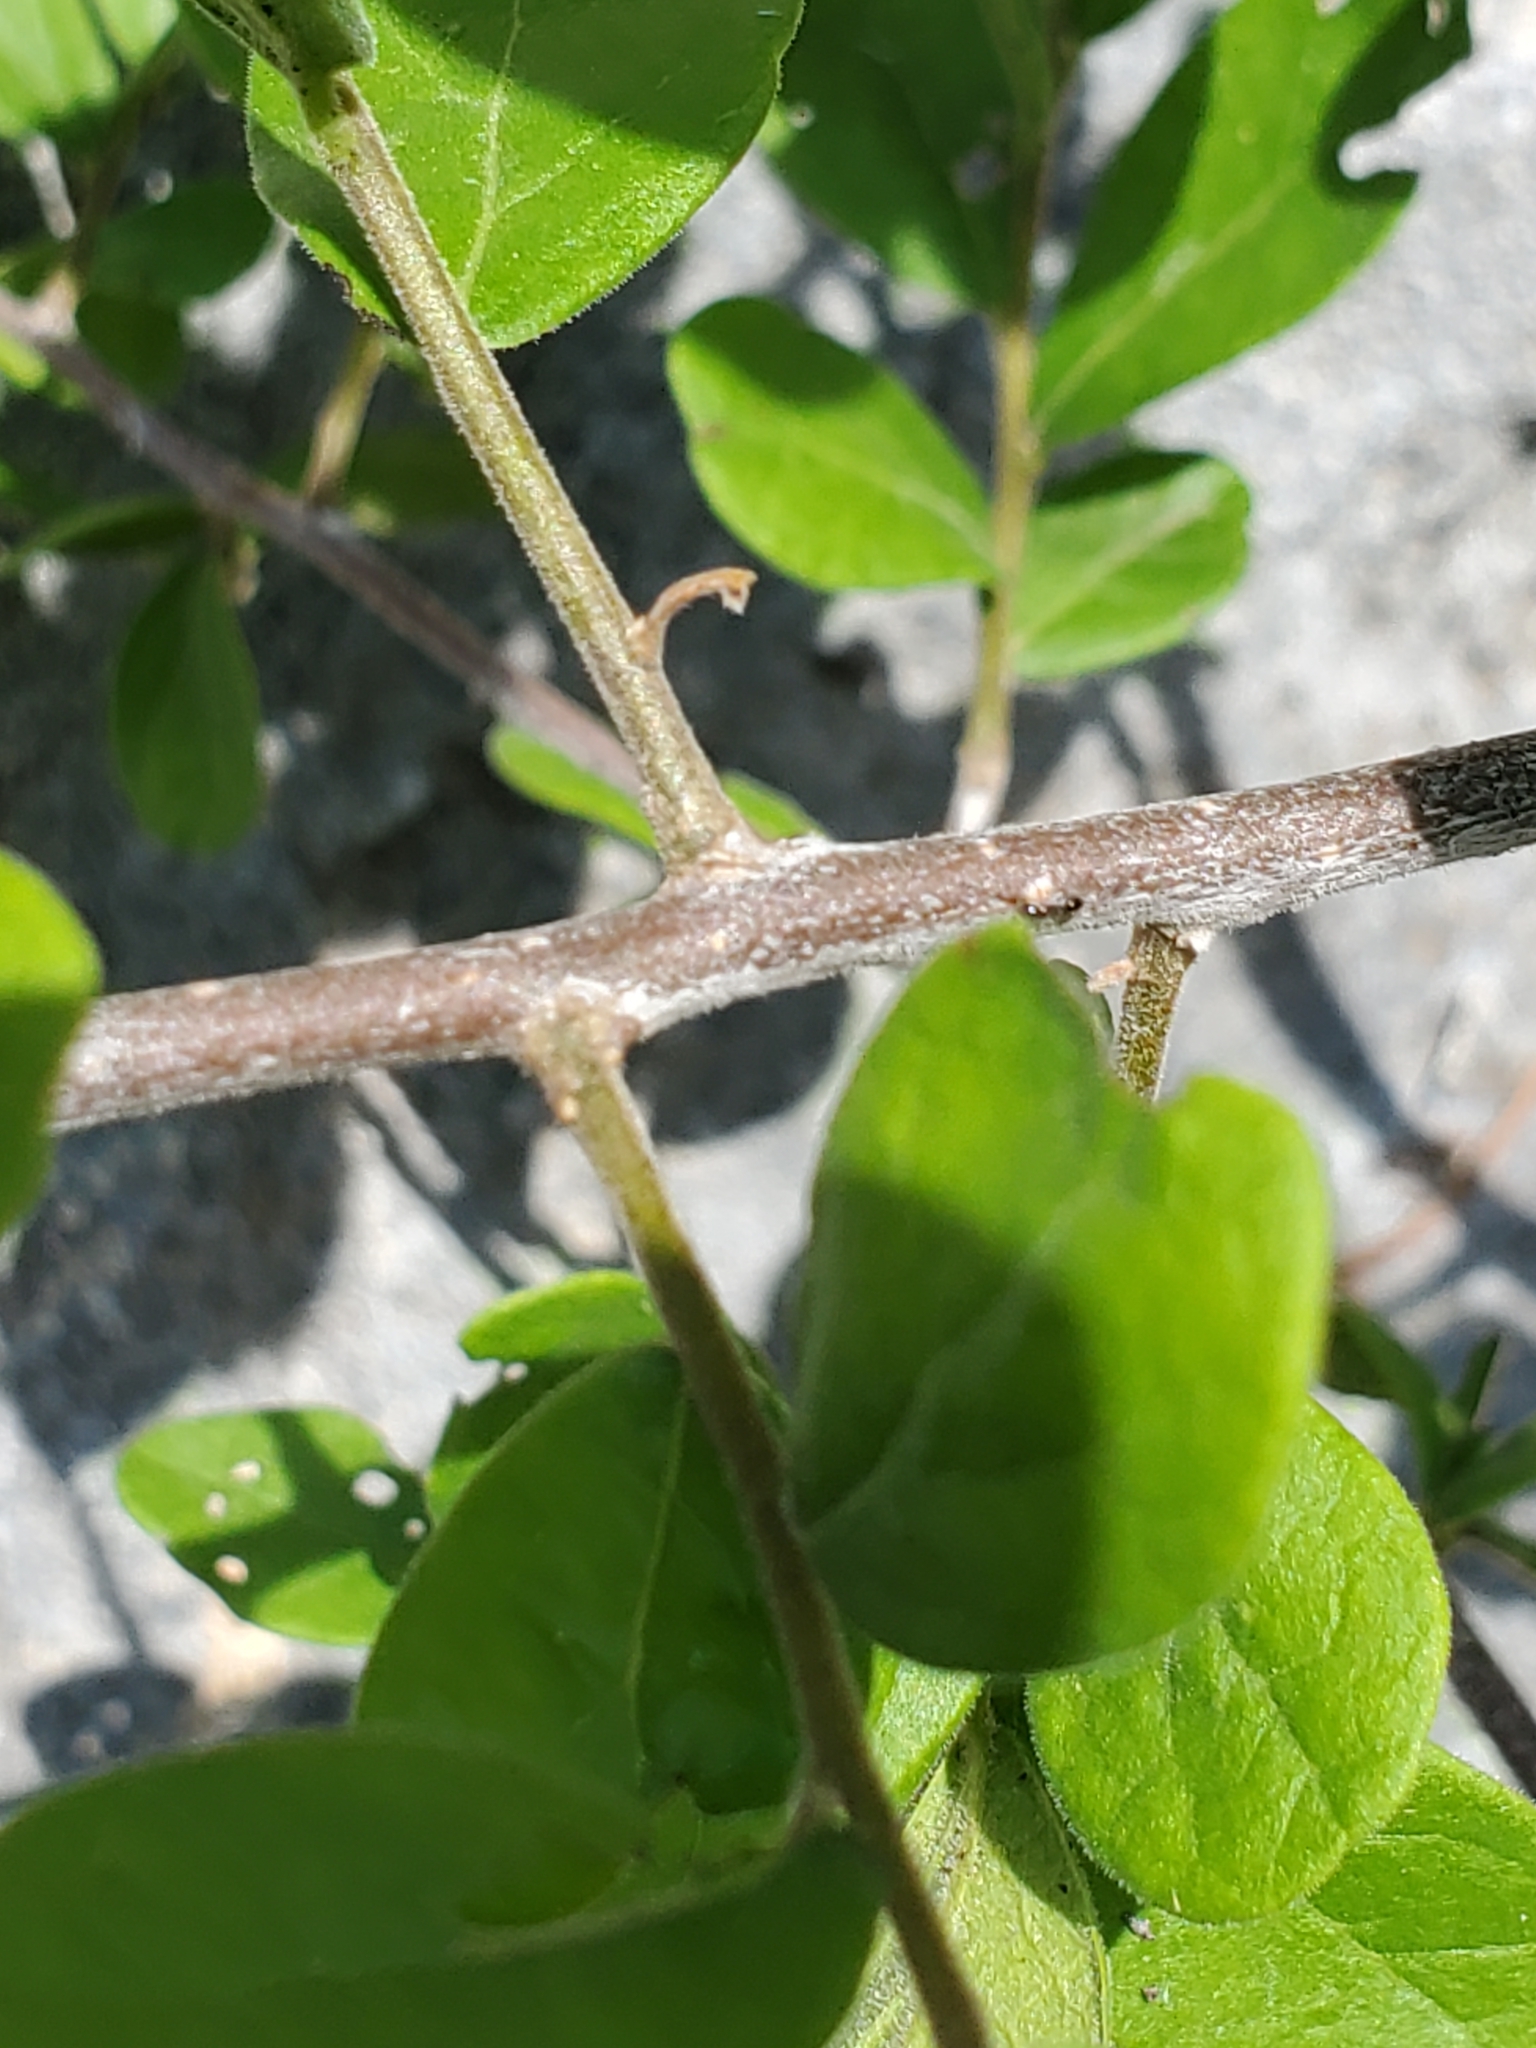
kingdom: Plantae
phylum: Tracheophyta
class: Magnoliopsida
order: Ericales
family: Ebenaceae
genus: Diospyros
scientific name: Diospyros texana
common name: Texas persimmon
